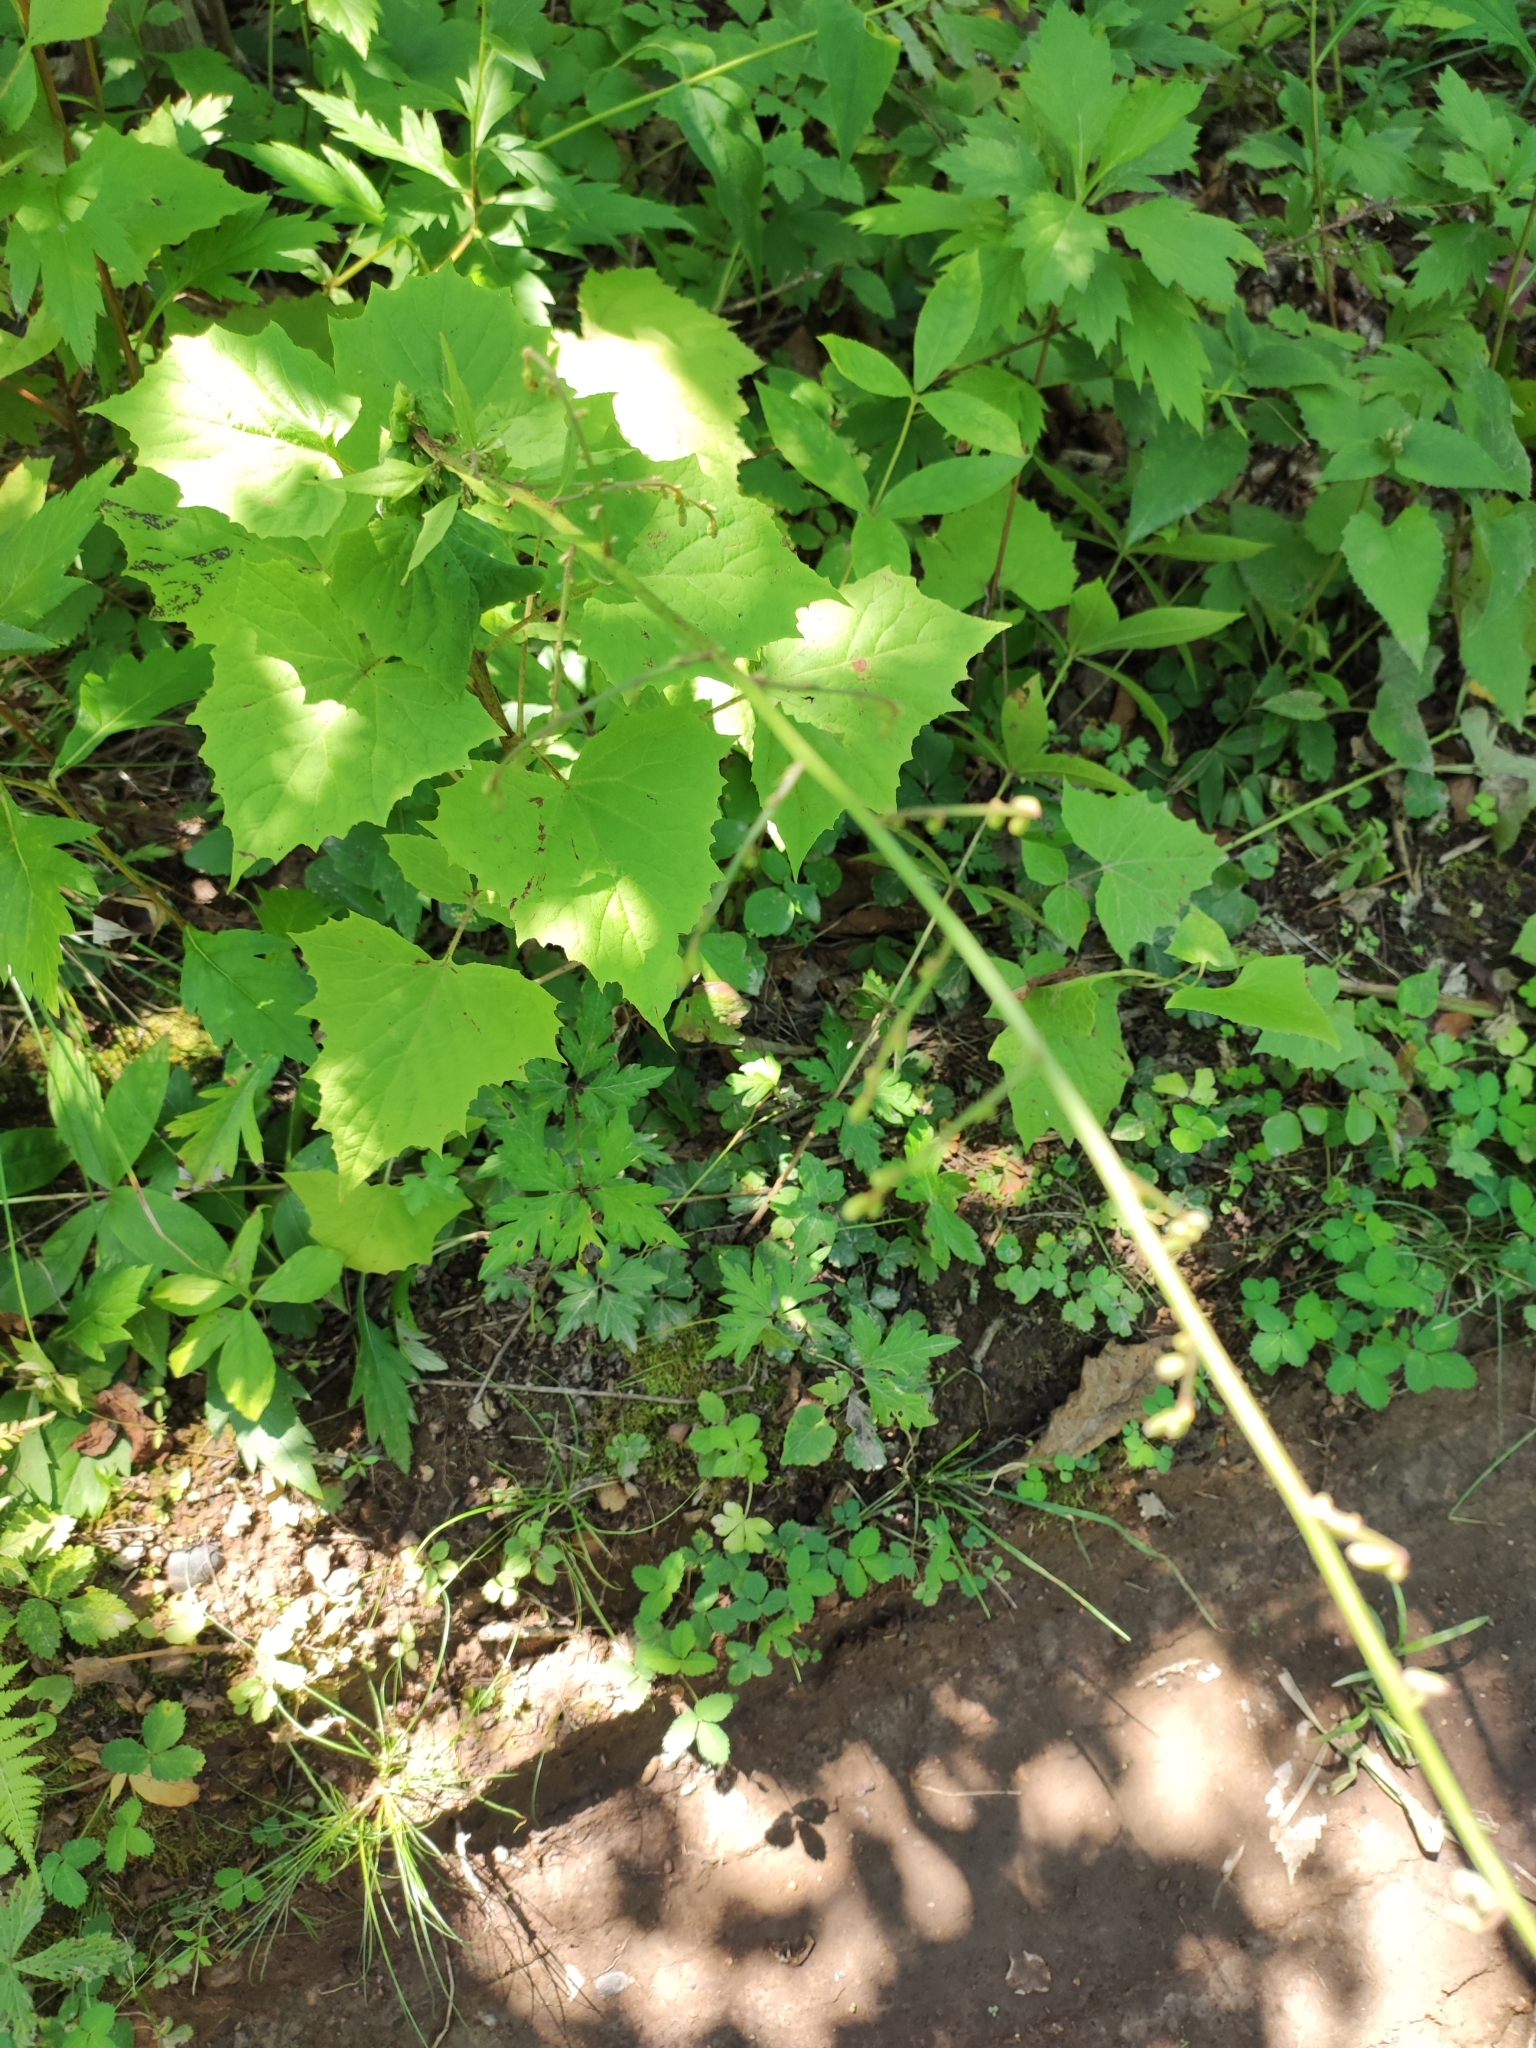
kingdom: Plantae
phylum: Tracheophyta
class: Magnoliopsida
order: Asterales
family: Asteraceae
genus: Nabalus
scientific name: Nabalus tatarinowii
